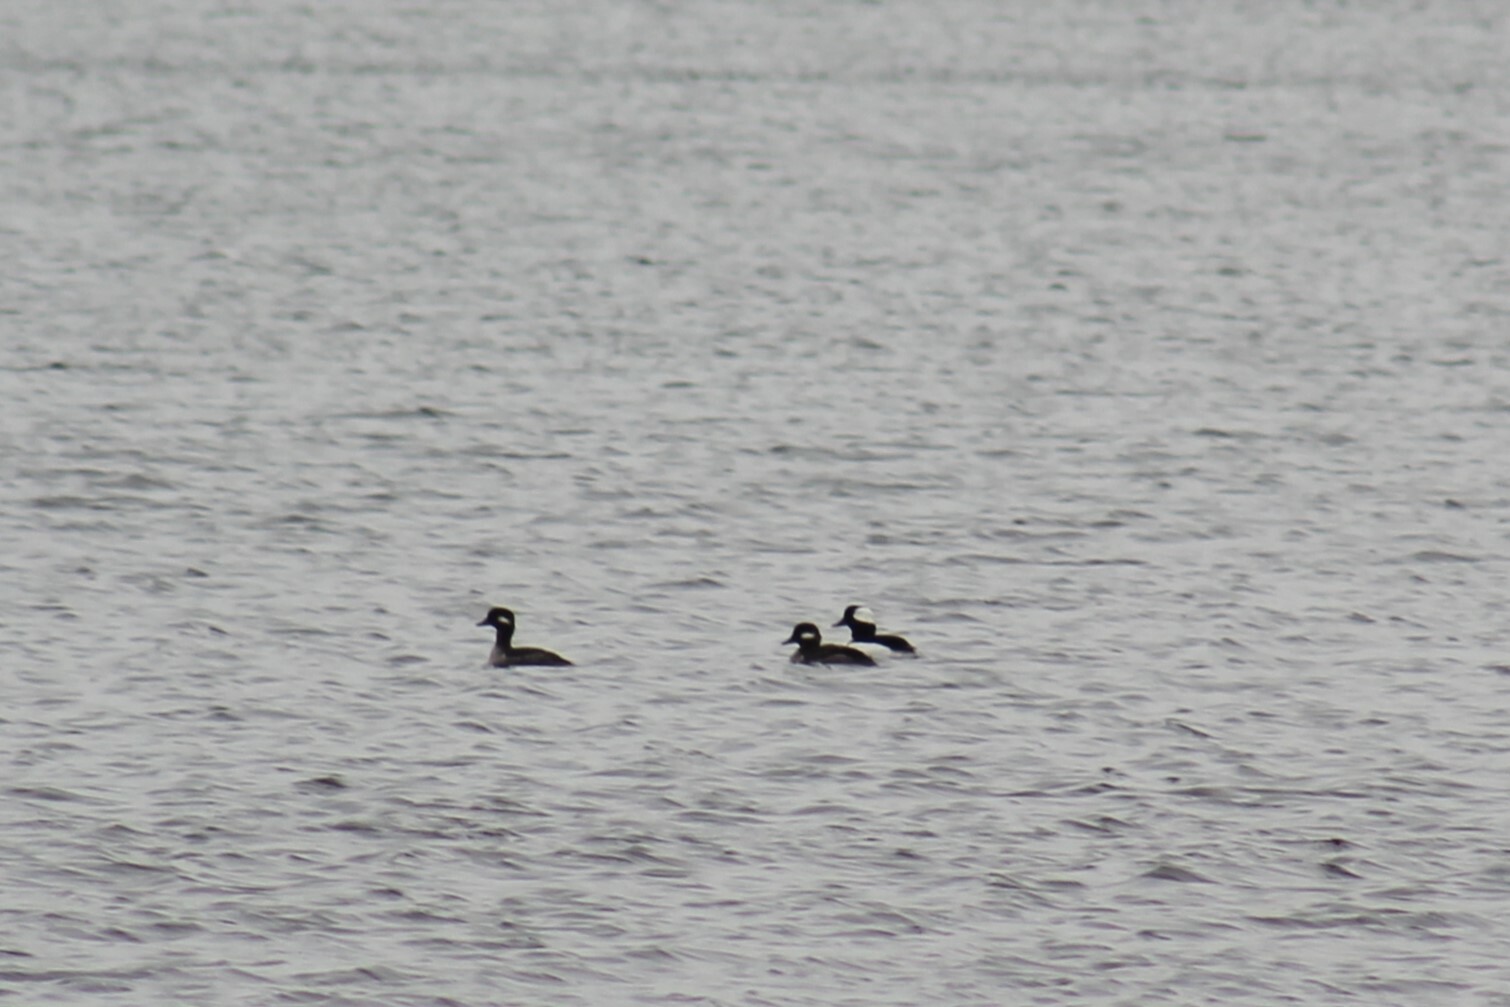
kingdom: Animalia
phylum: Chordata
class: Aves
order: Anseriformes
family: Anatidae
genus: Bucephala
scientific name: Bucephala albeola
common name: Bufflehead
